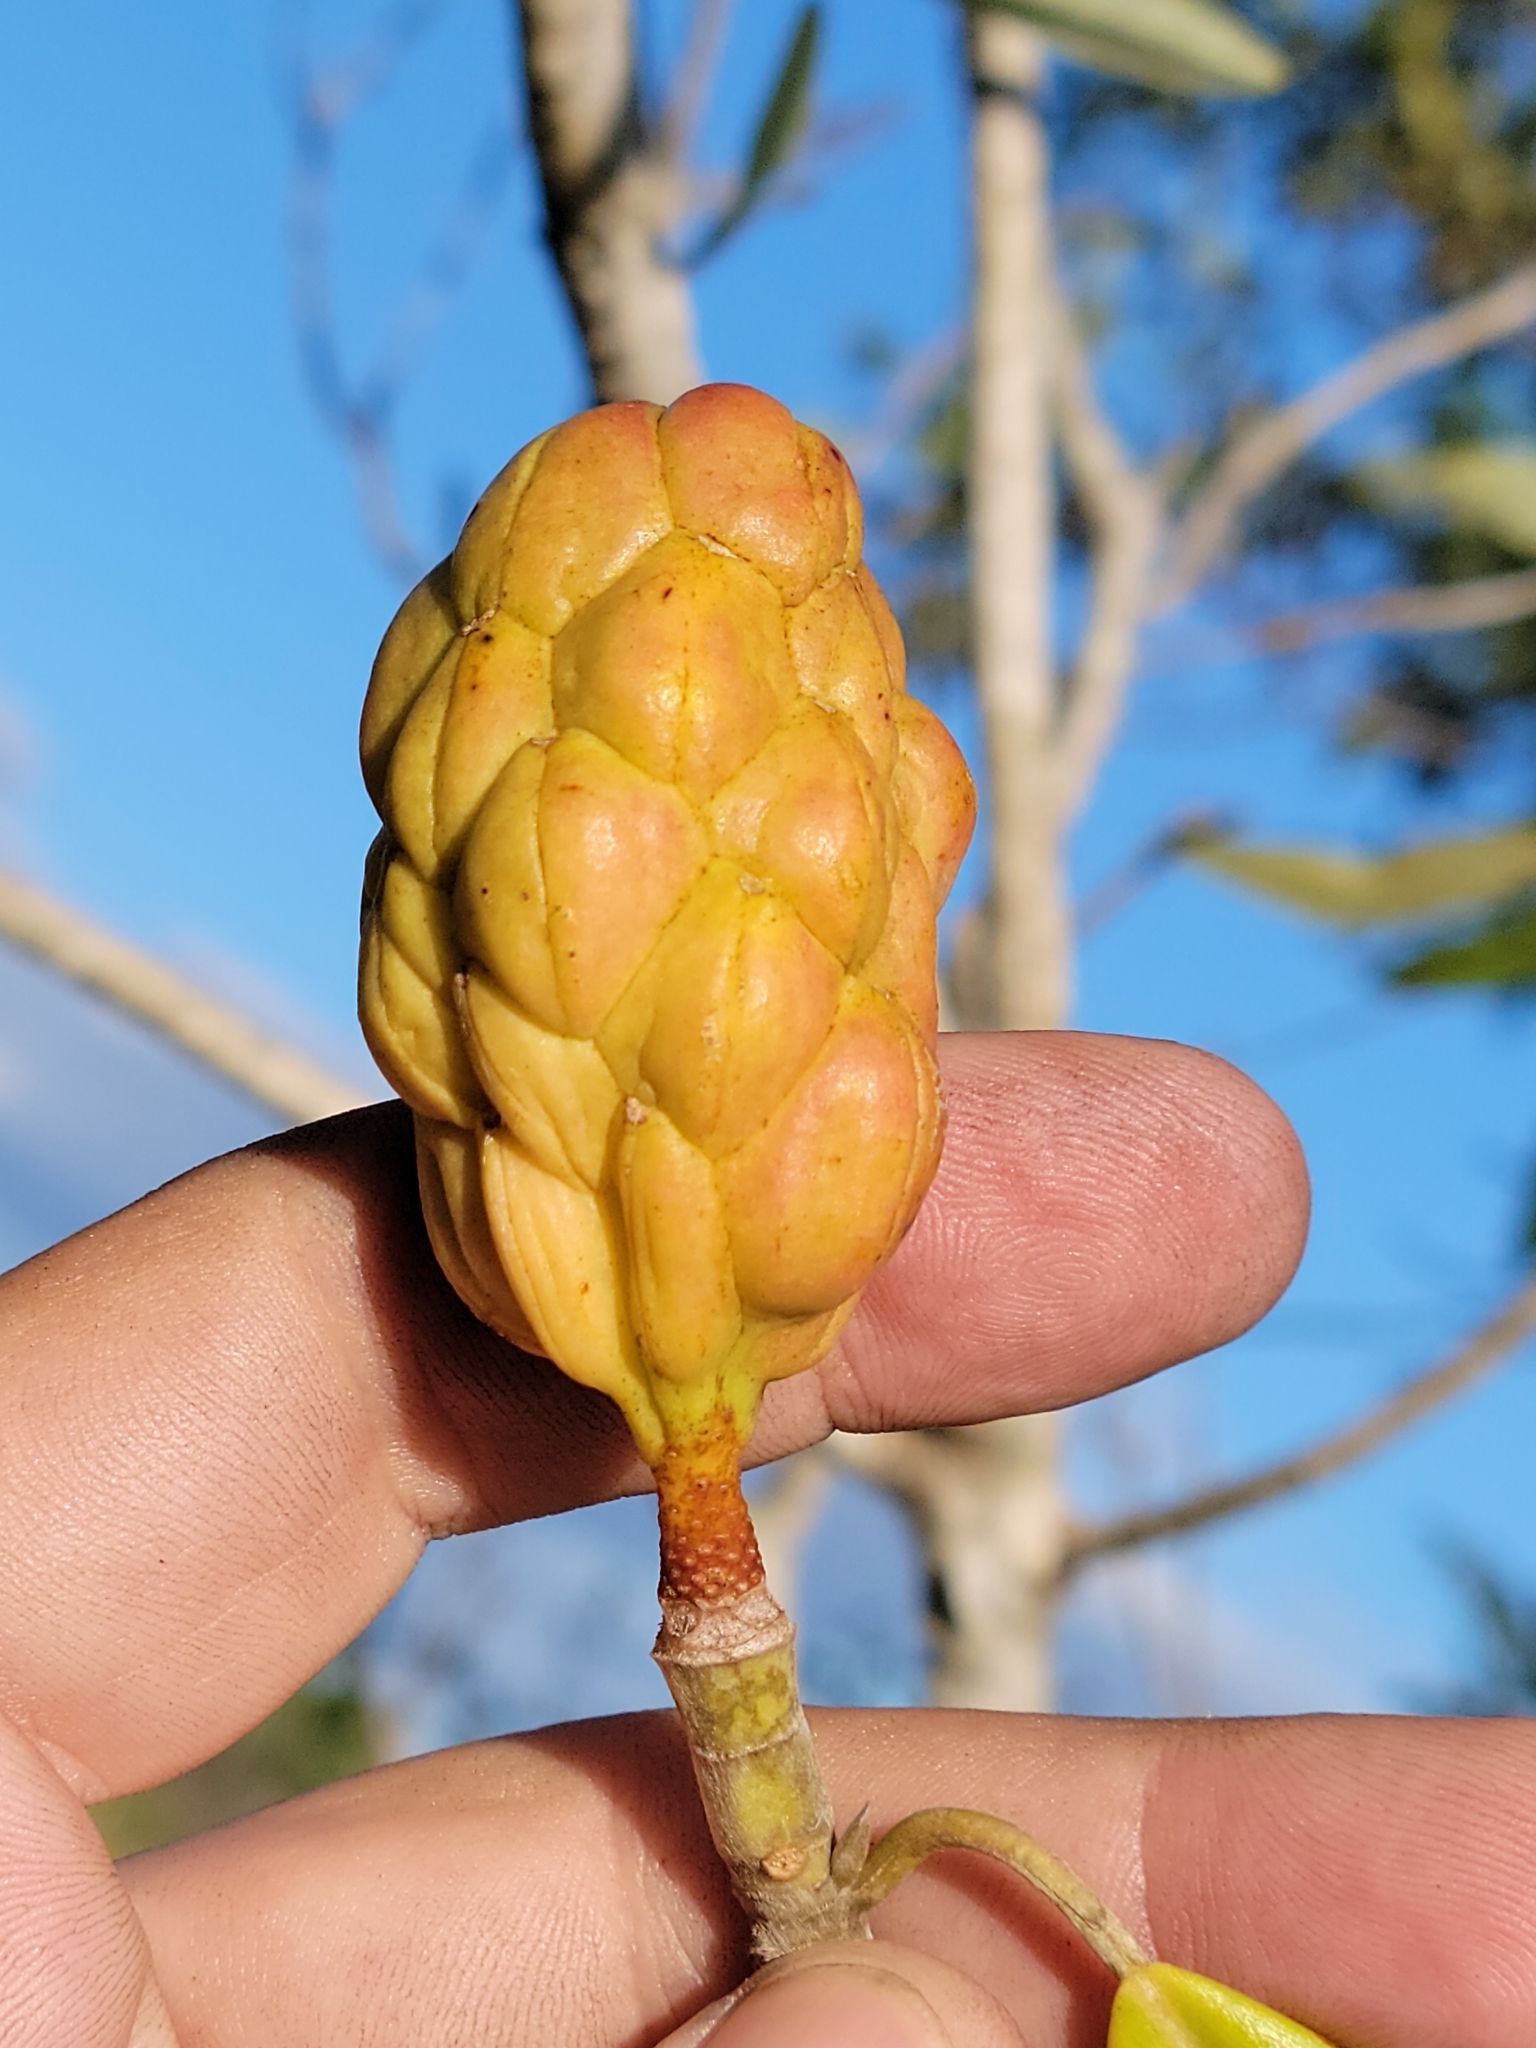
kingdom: Plantae
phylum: Tracheophyta
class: Magnoliopsida
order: Magnoliales
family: Magnoliaceae
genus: Magnolia
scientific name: Magnolia virginiana
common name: Swamp bay
